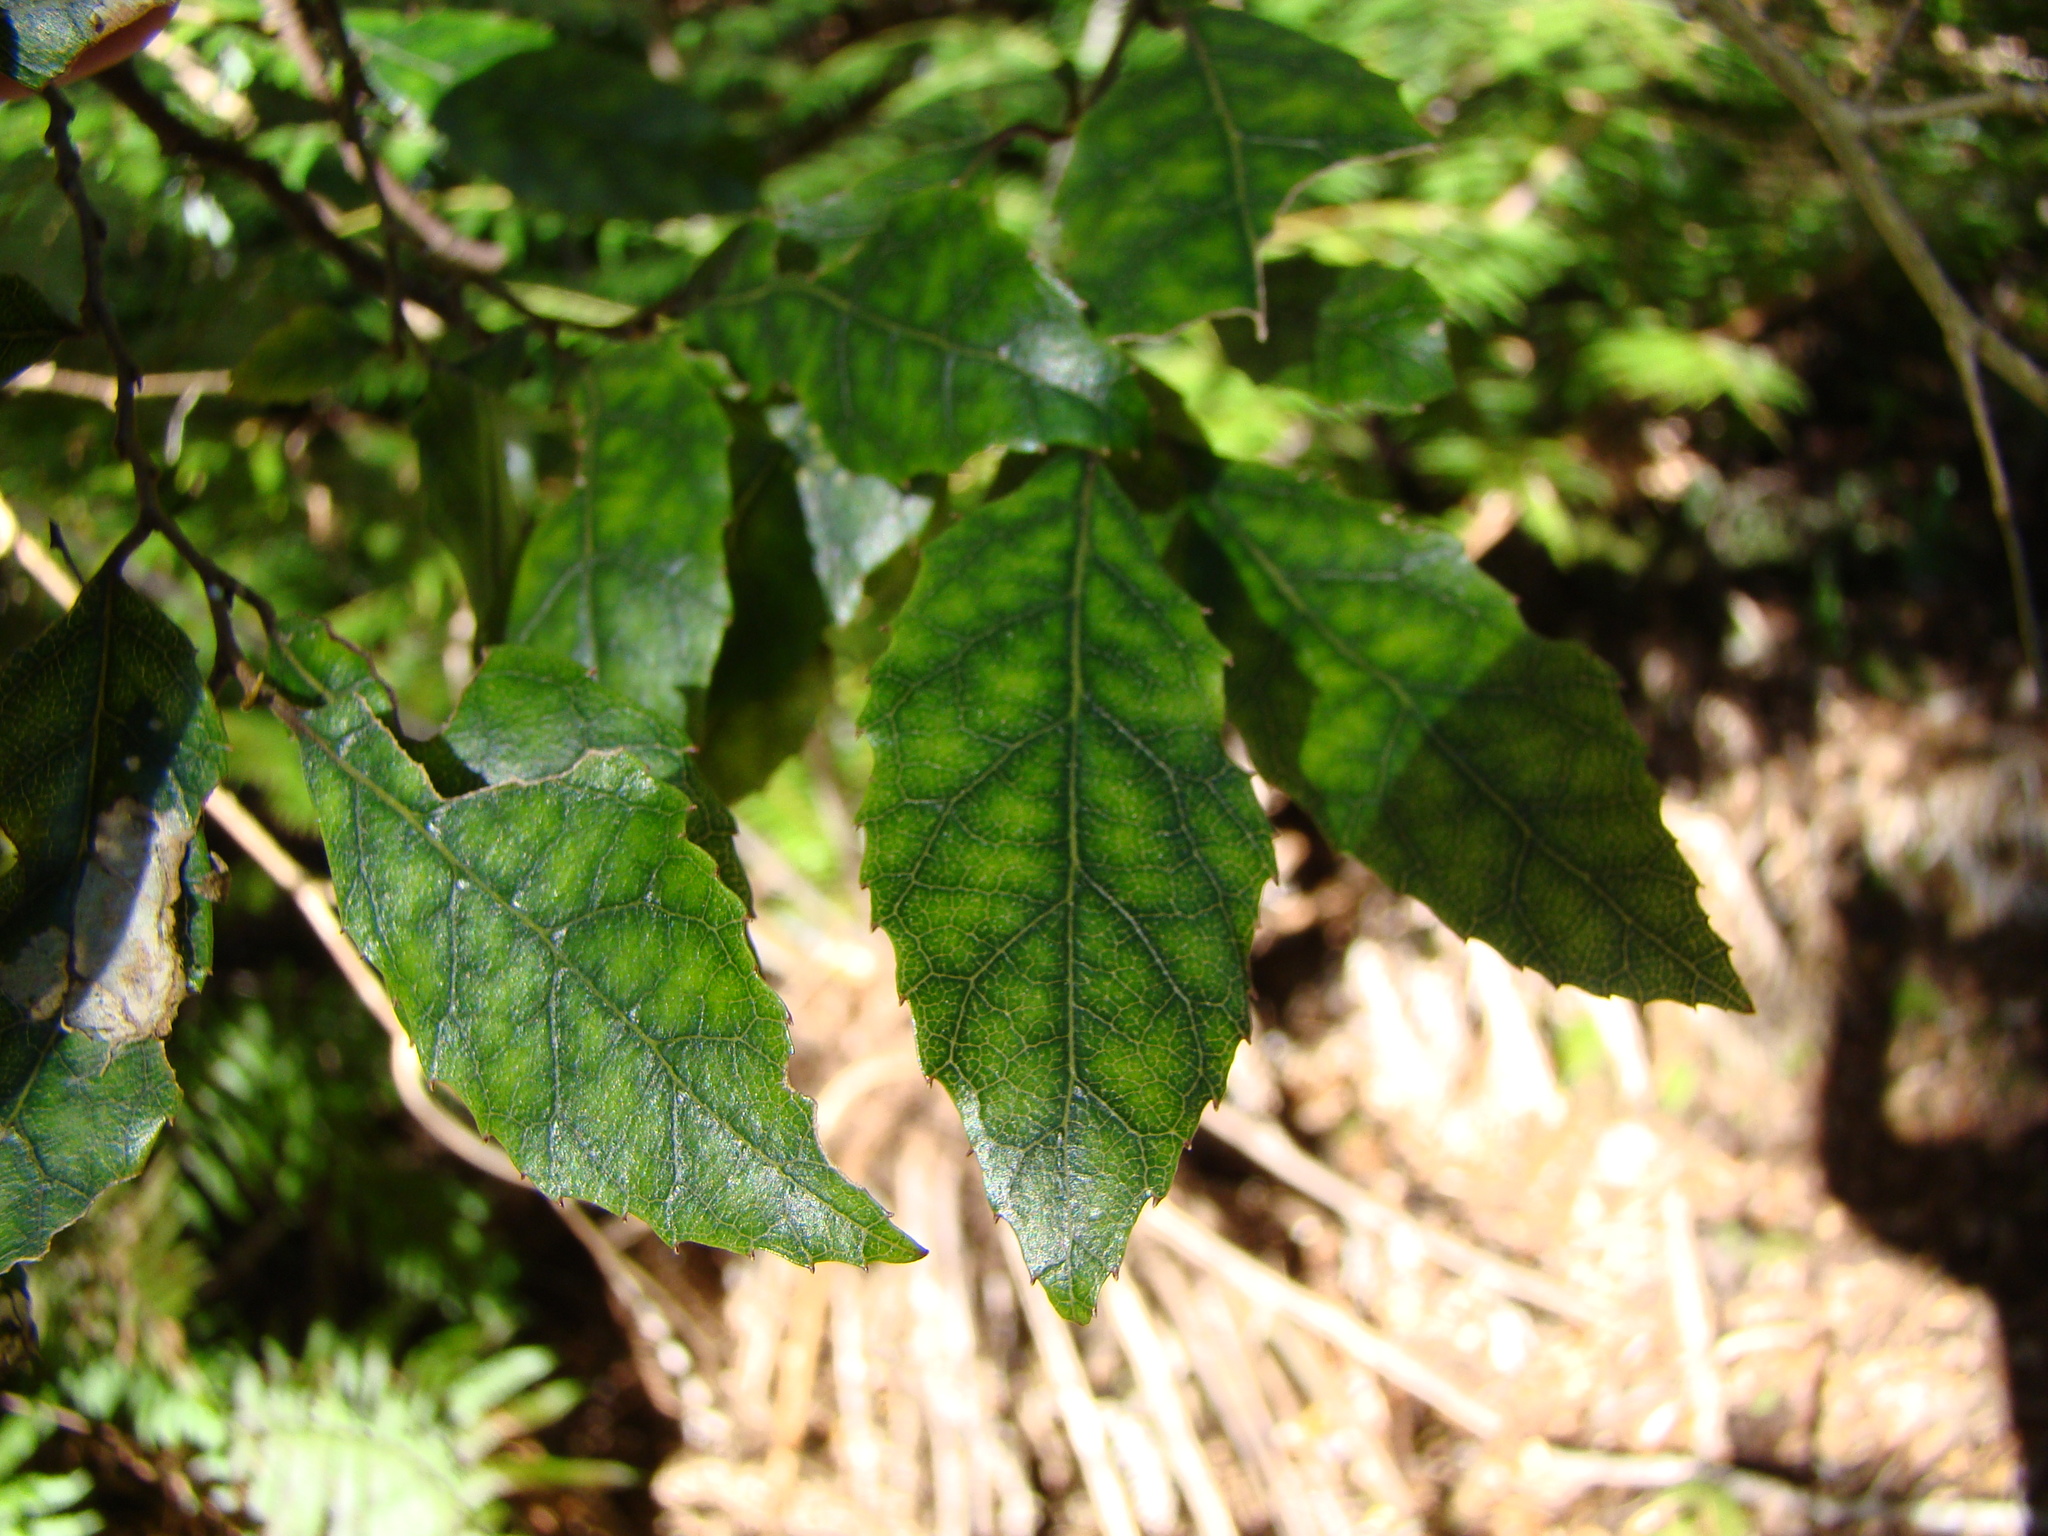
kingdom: Plantae
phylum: Tracheophyta
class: Magnoliopsida
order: Asterales
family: Rousseaceae
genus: Carpodetus
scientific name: Carpodetus serratus
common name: White mapau
